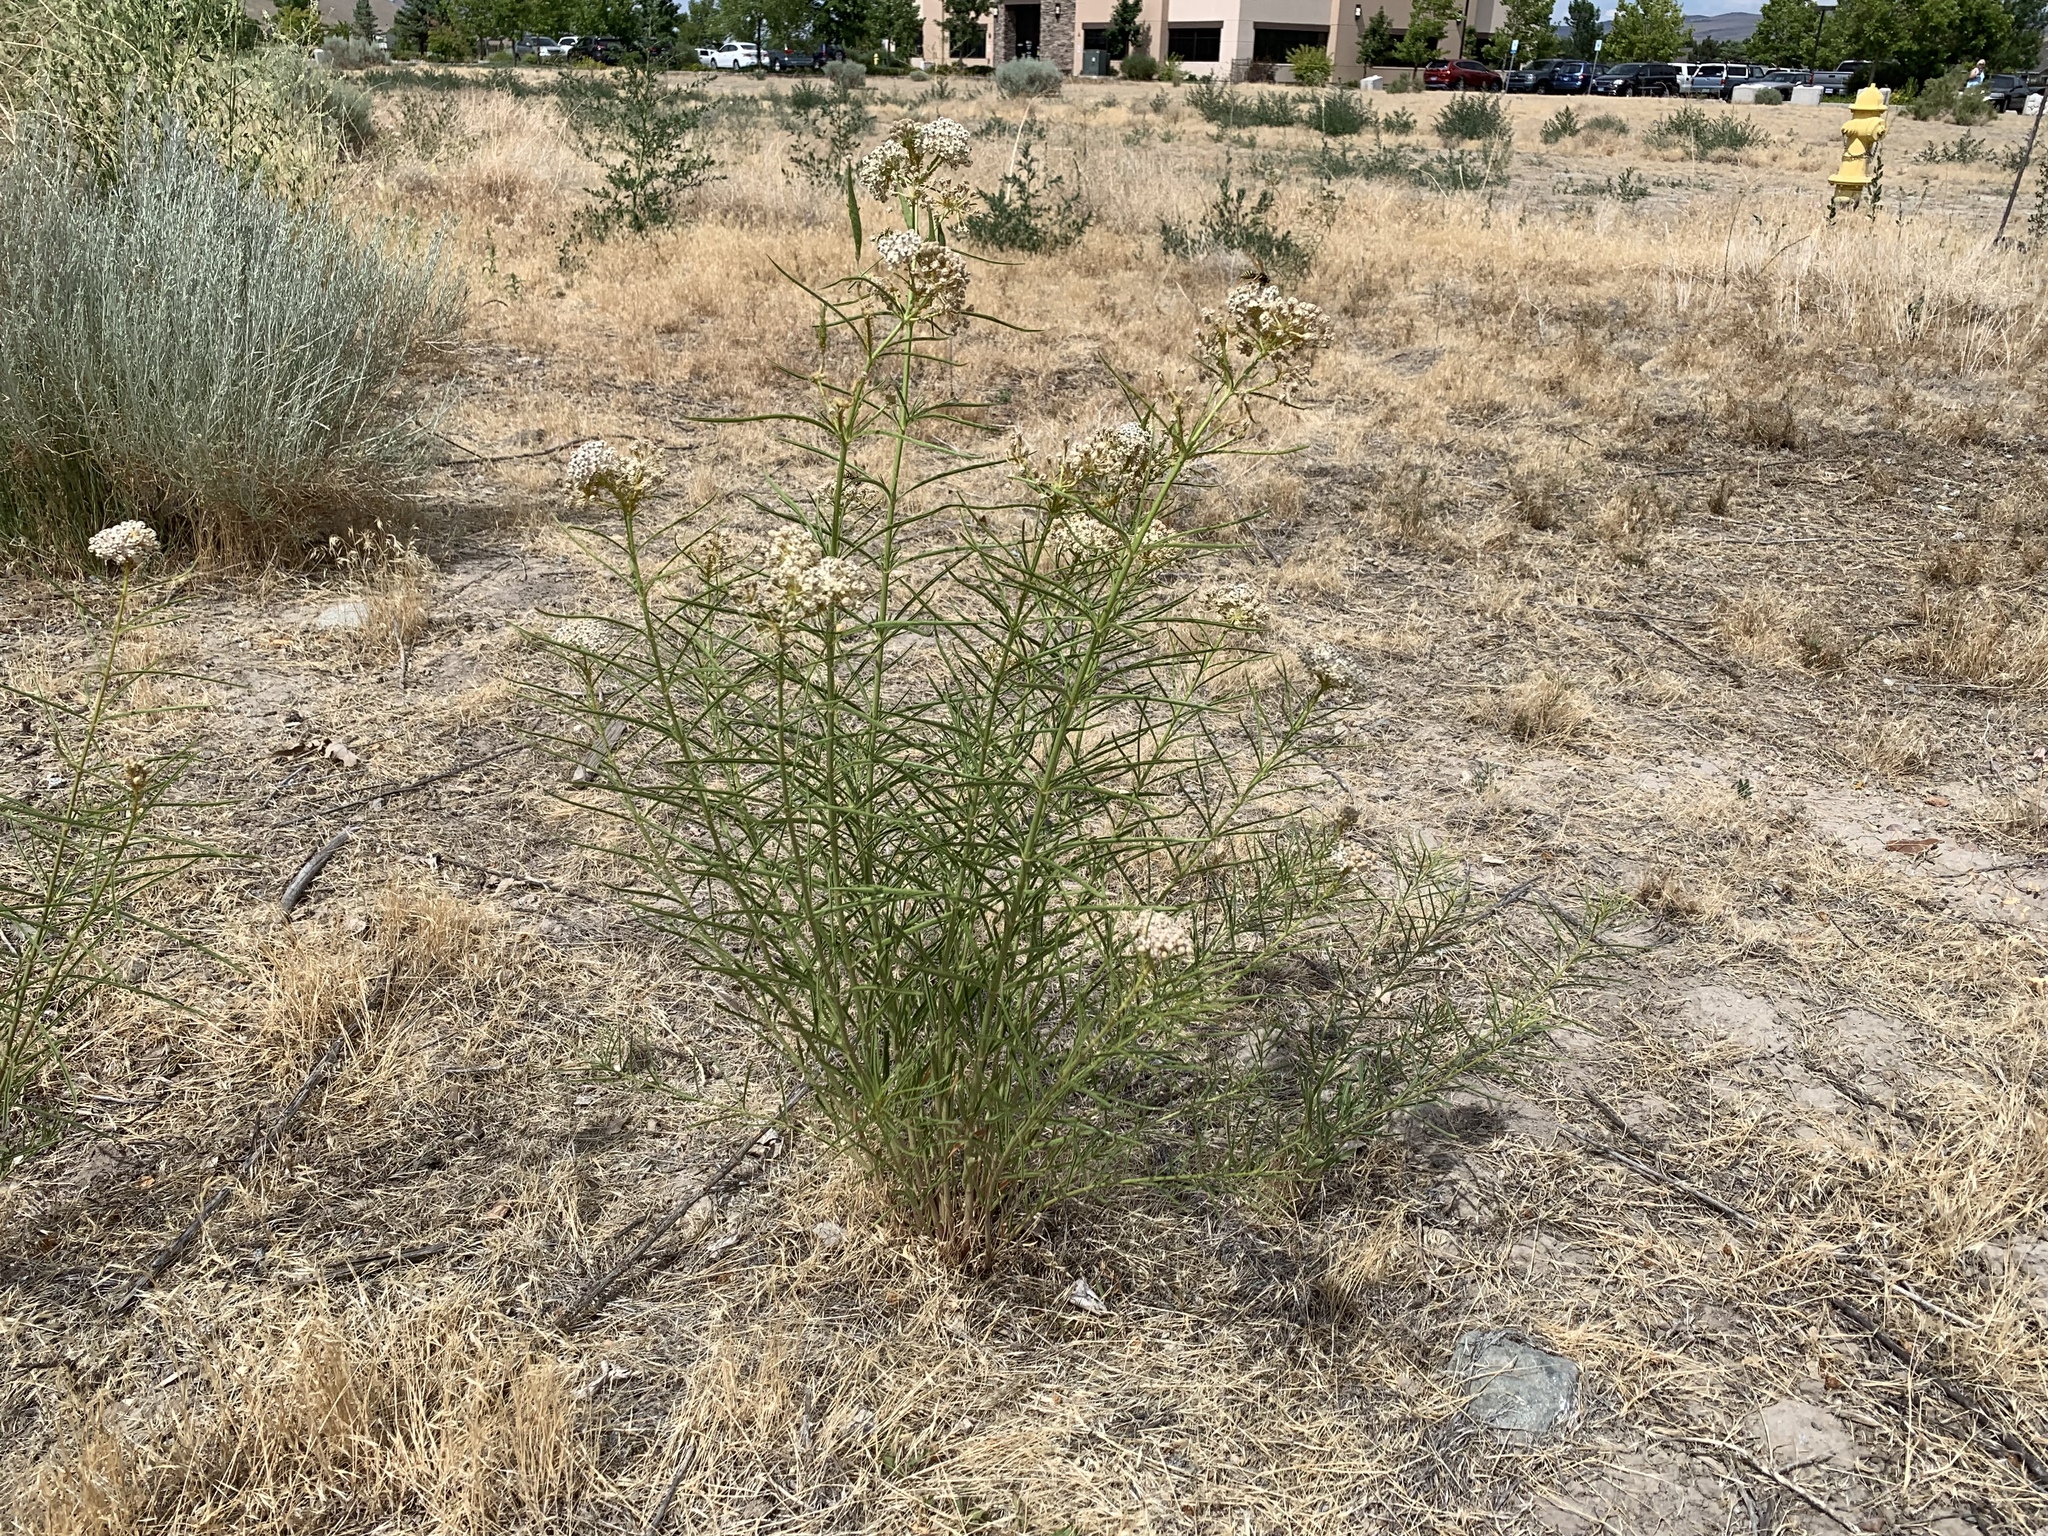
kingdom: Plantae
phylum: Tracheophyta
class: Magnoliopsida
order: Gentianales
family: Apocynaceae
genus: Asclepias
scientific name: Asclepias fascicularis
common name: Mexican milkweed
